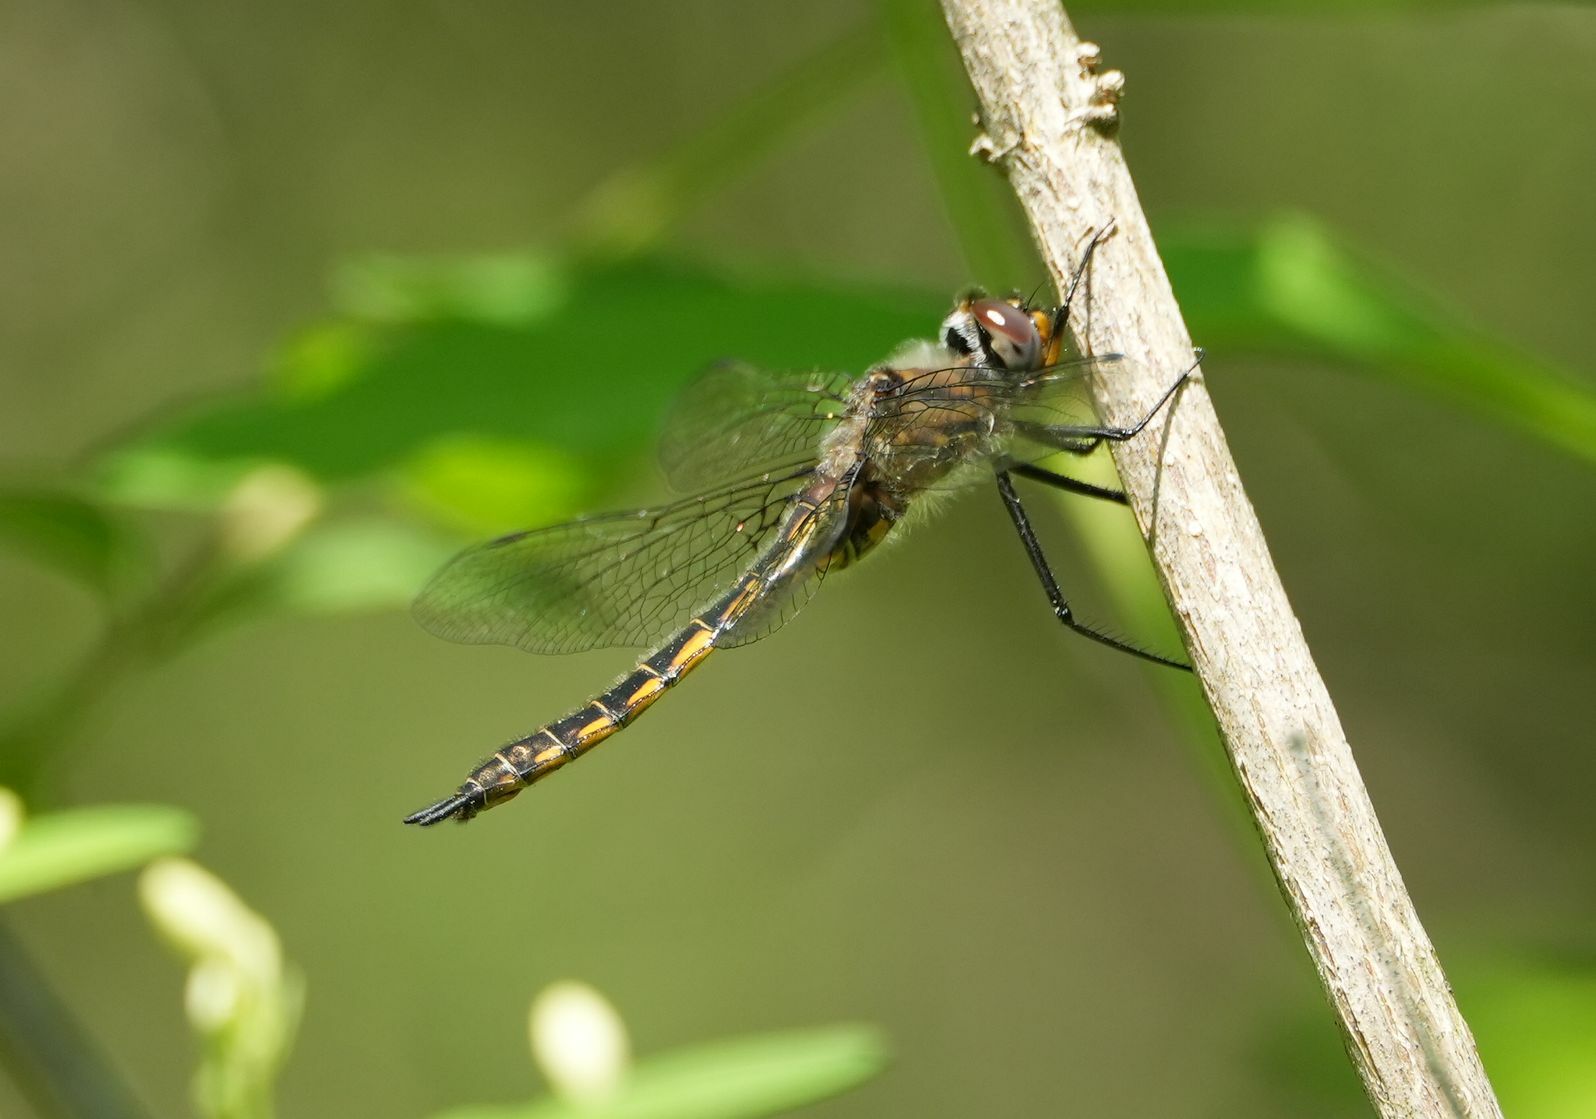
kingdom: Animalia
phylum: Arthropoda
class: Insecta
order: Odonata
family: Corduliidae
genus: Epitheca
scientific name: Epitheca spinigera
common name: Spiny baskettail
